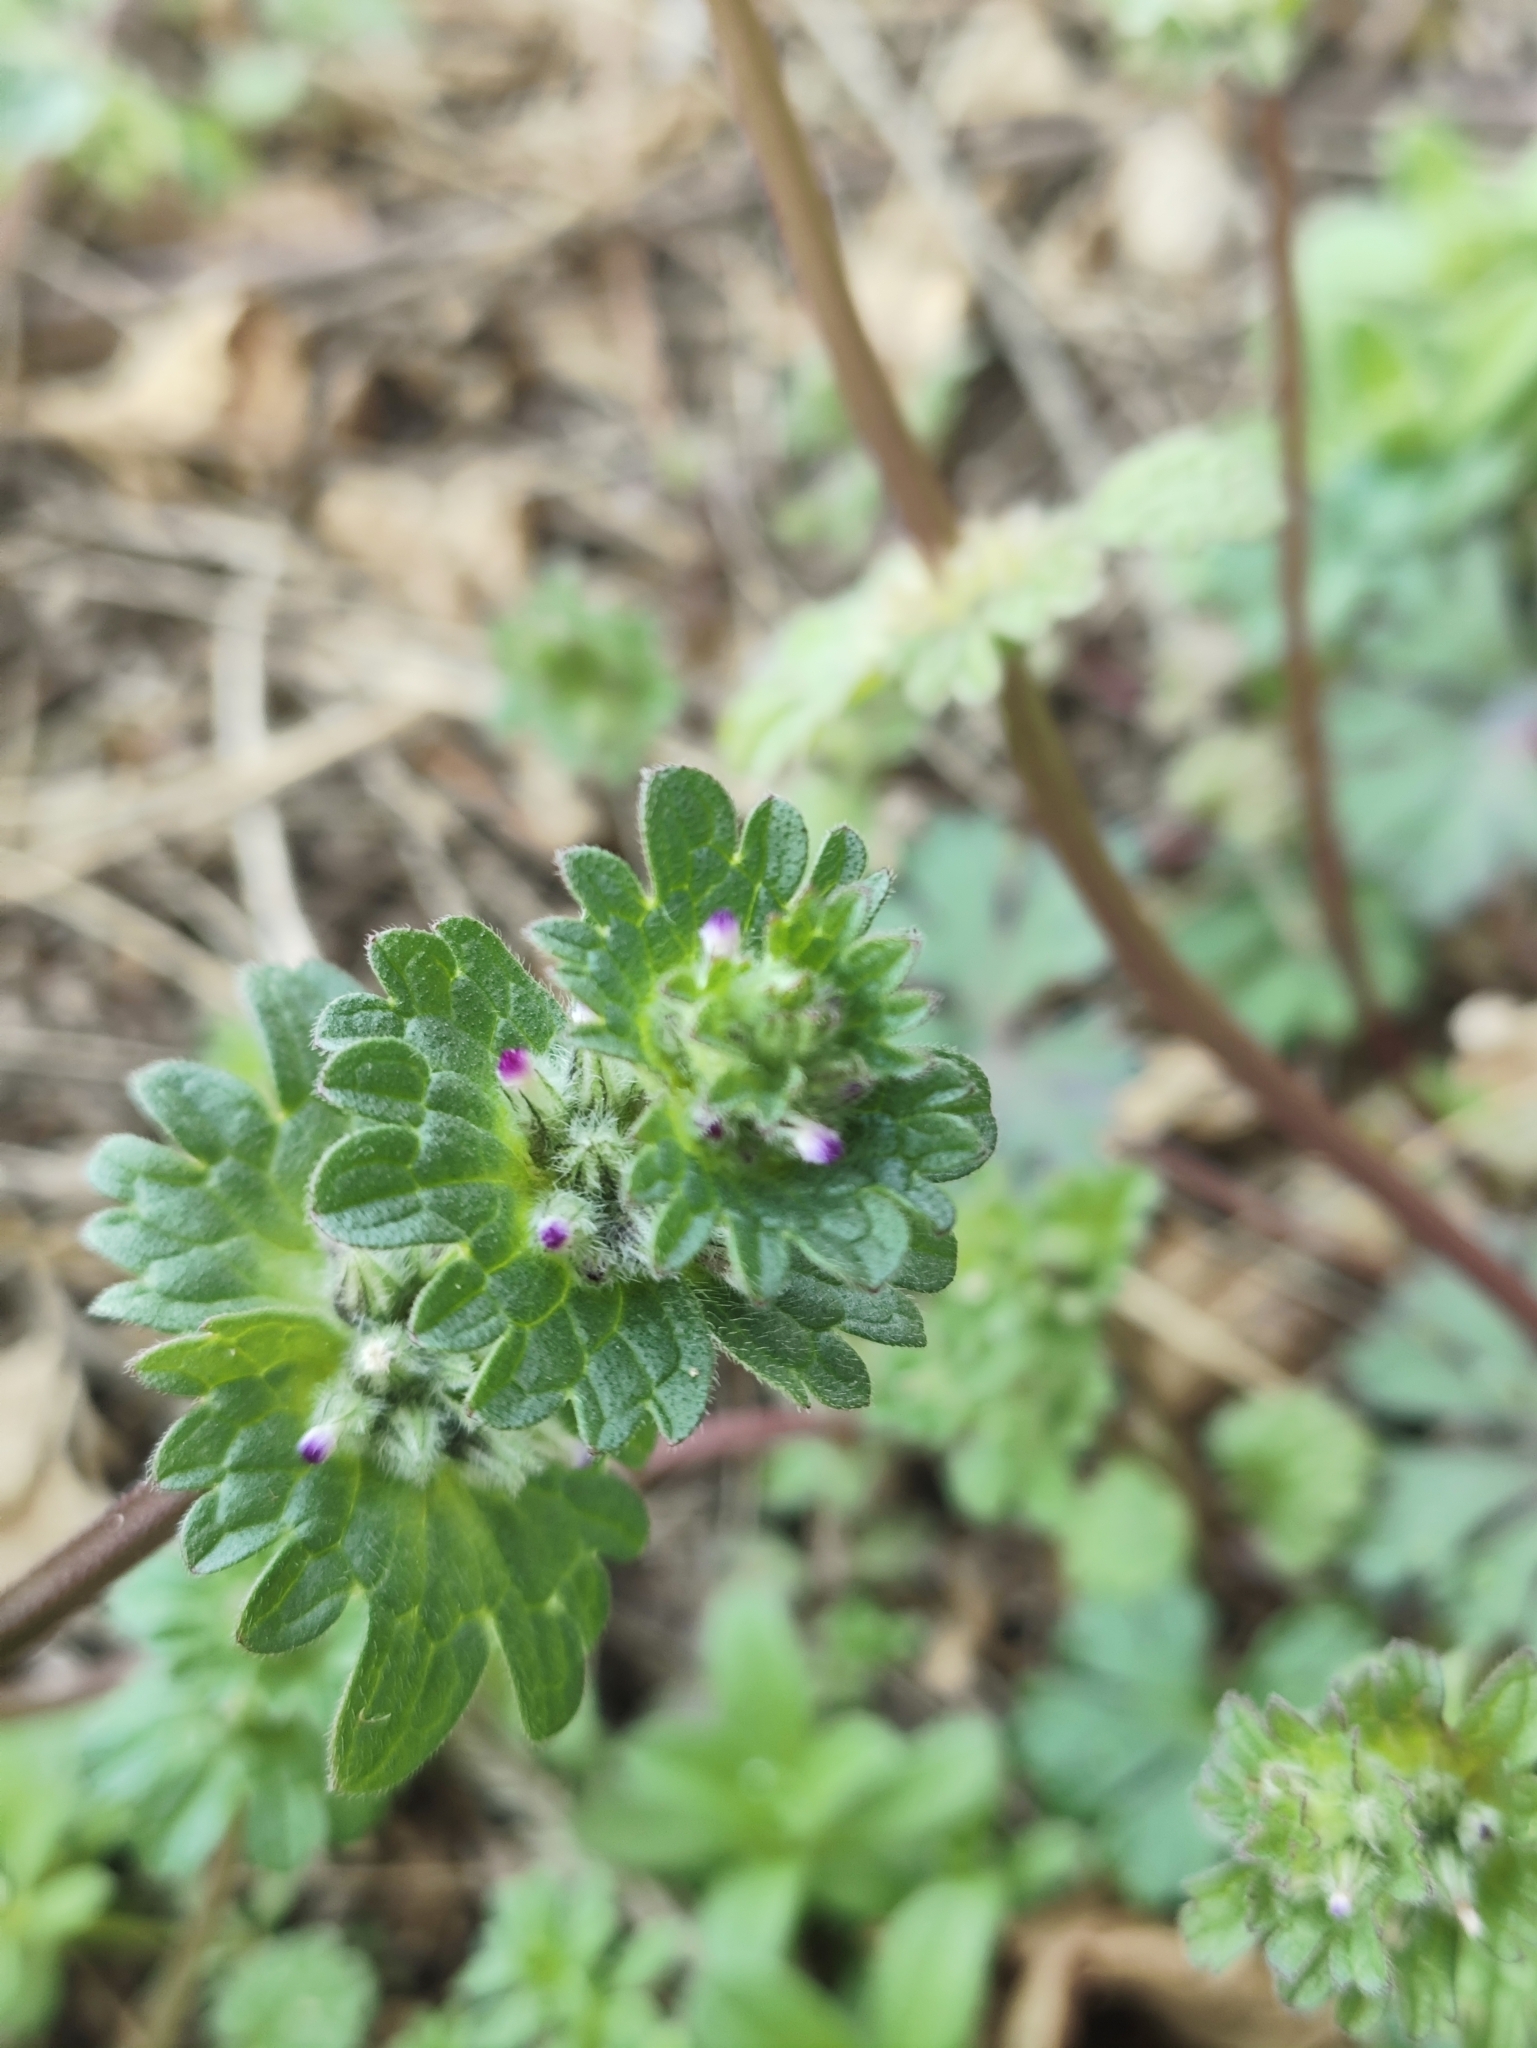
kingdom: Plantae
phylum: Tracheophyta
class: Magnoliopsida
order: Lamiales
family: Lamiaceae
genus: Lamium
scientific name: Lamium amplexicaule
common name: Henbit dead-nettle
